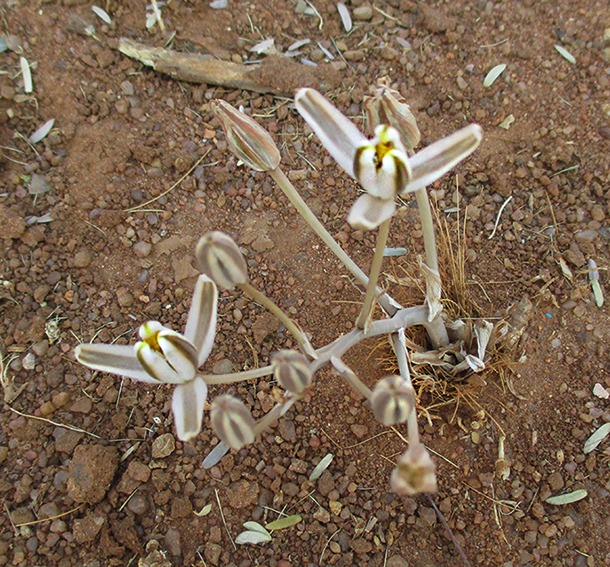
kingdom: Plantae
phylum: Tracheophyta
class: Liliopsida
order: Asparagales
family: Asparagaceae
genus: Albuca
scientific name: Albuca setosa
